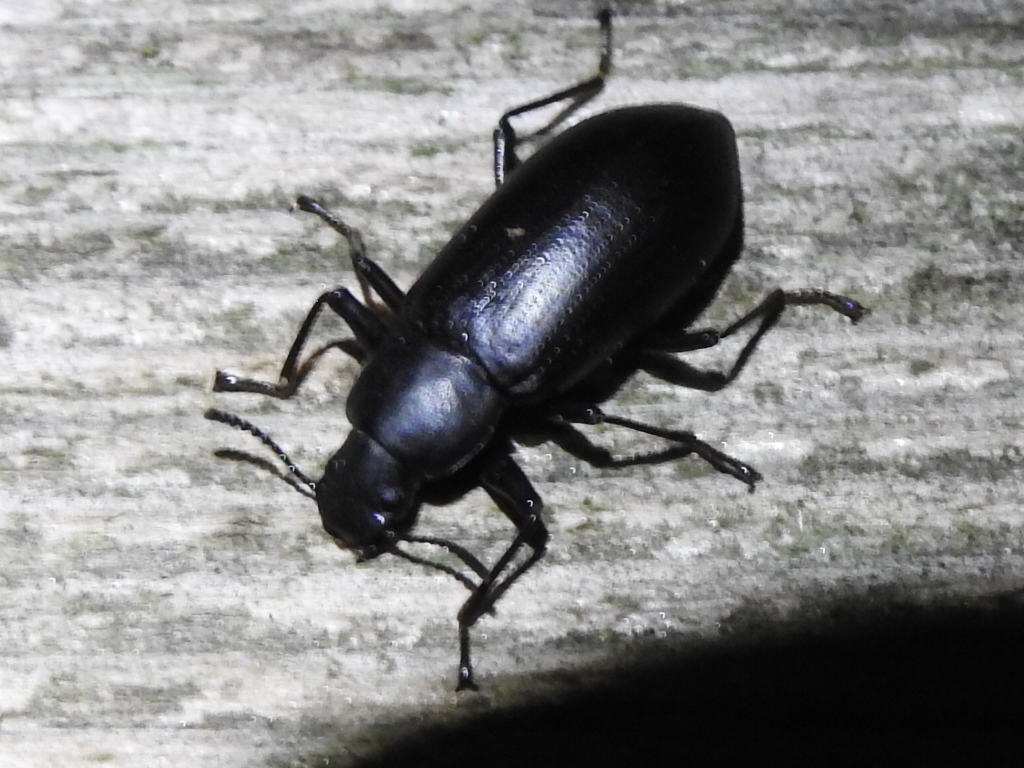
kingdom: Animalia
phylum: Arthropoda
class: Insecta
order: Coleoptera
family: Tenebrionidae
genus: Alobates
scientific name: Alobates
